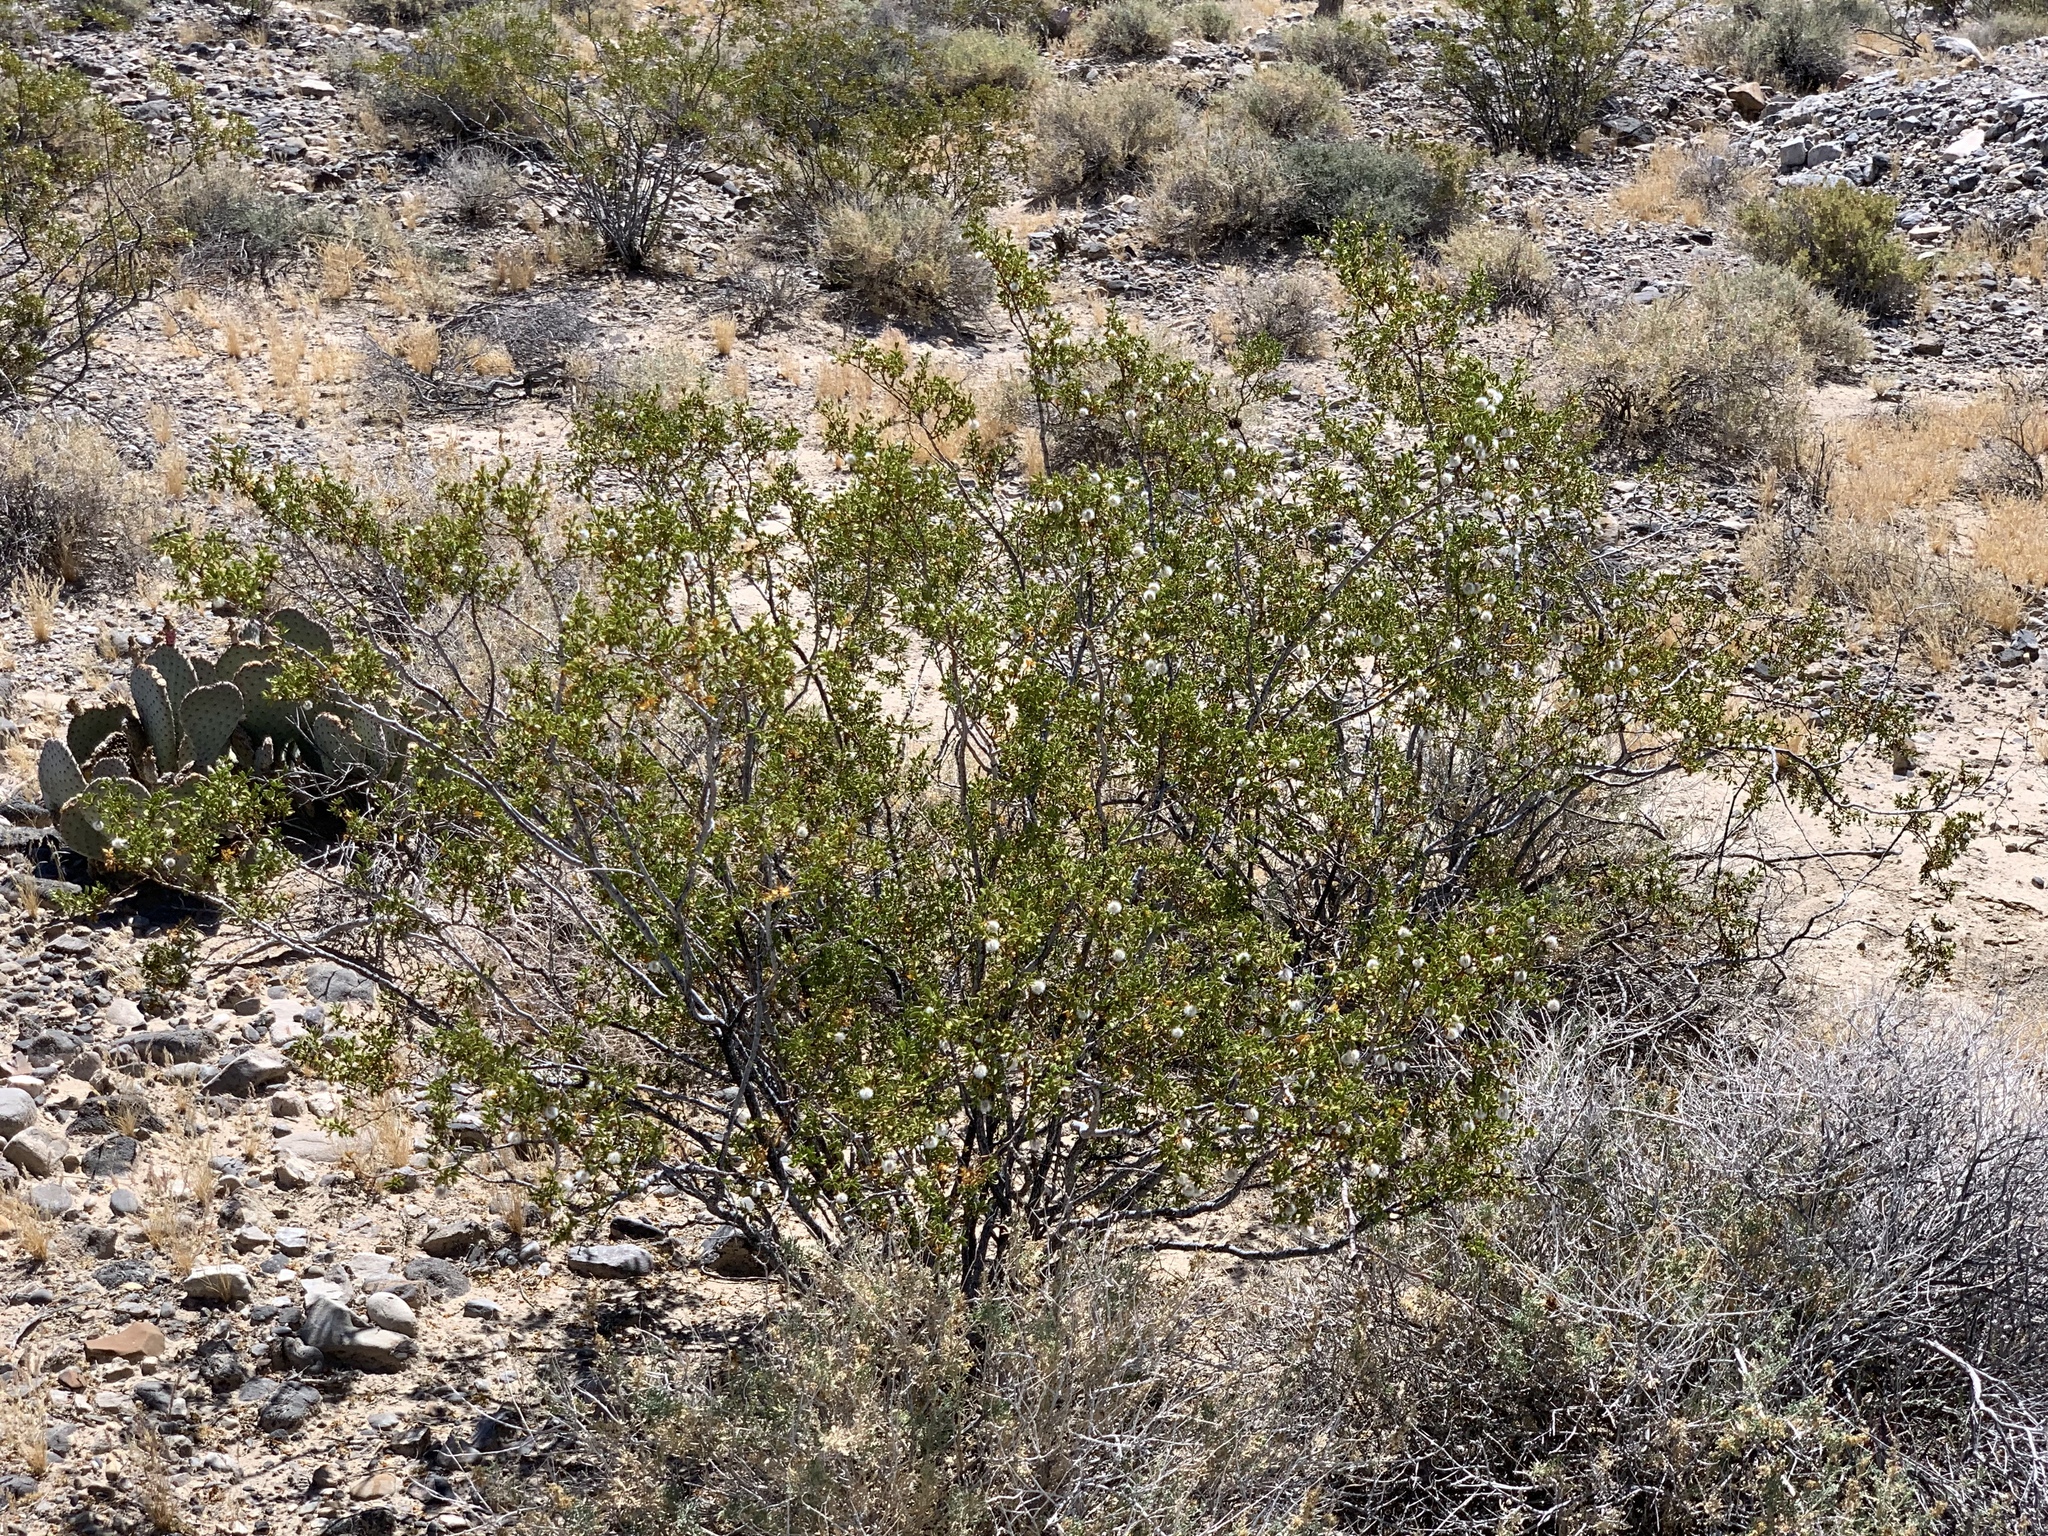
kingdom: Plantae
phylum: Tracheophyta
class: Magnoliopsida
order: Zygophyllales
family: Zygophyllaceae
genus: Larrea
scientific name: Larrea tridentata
